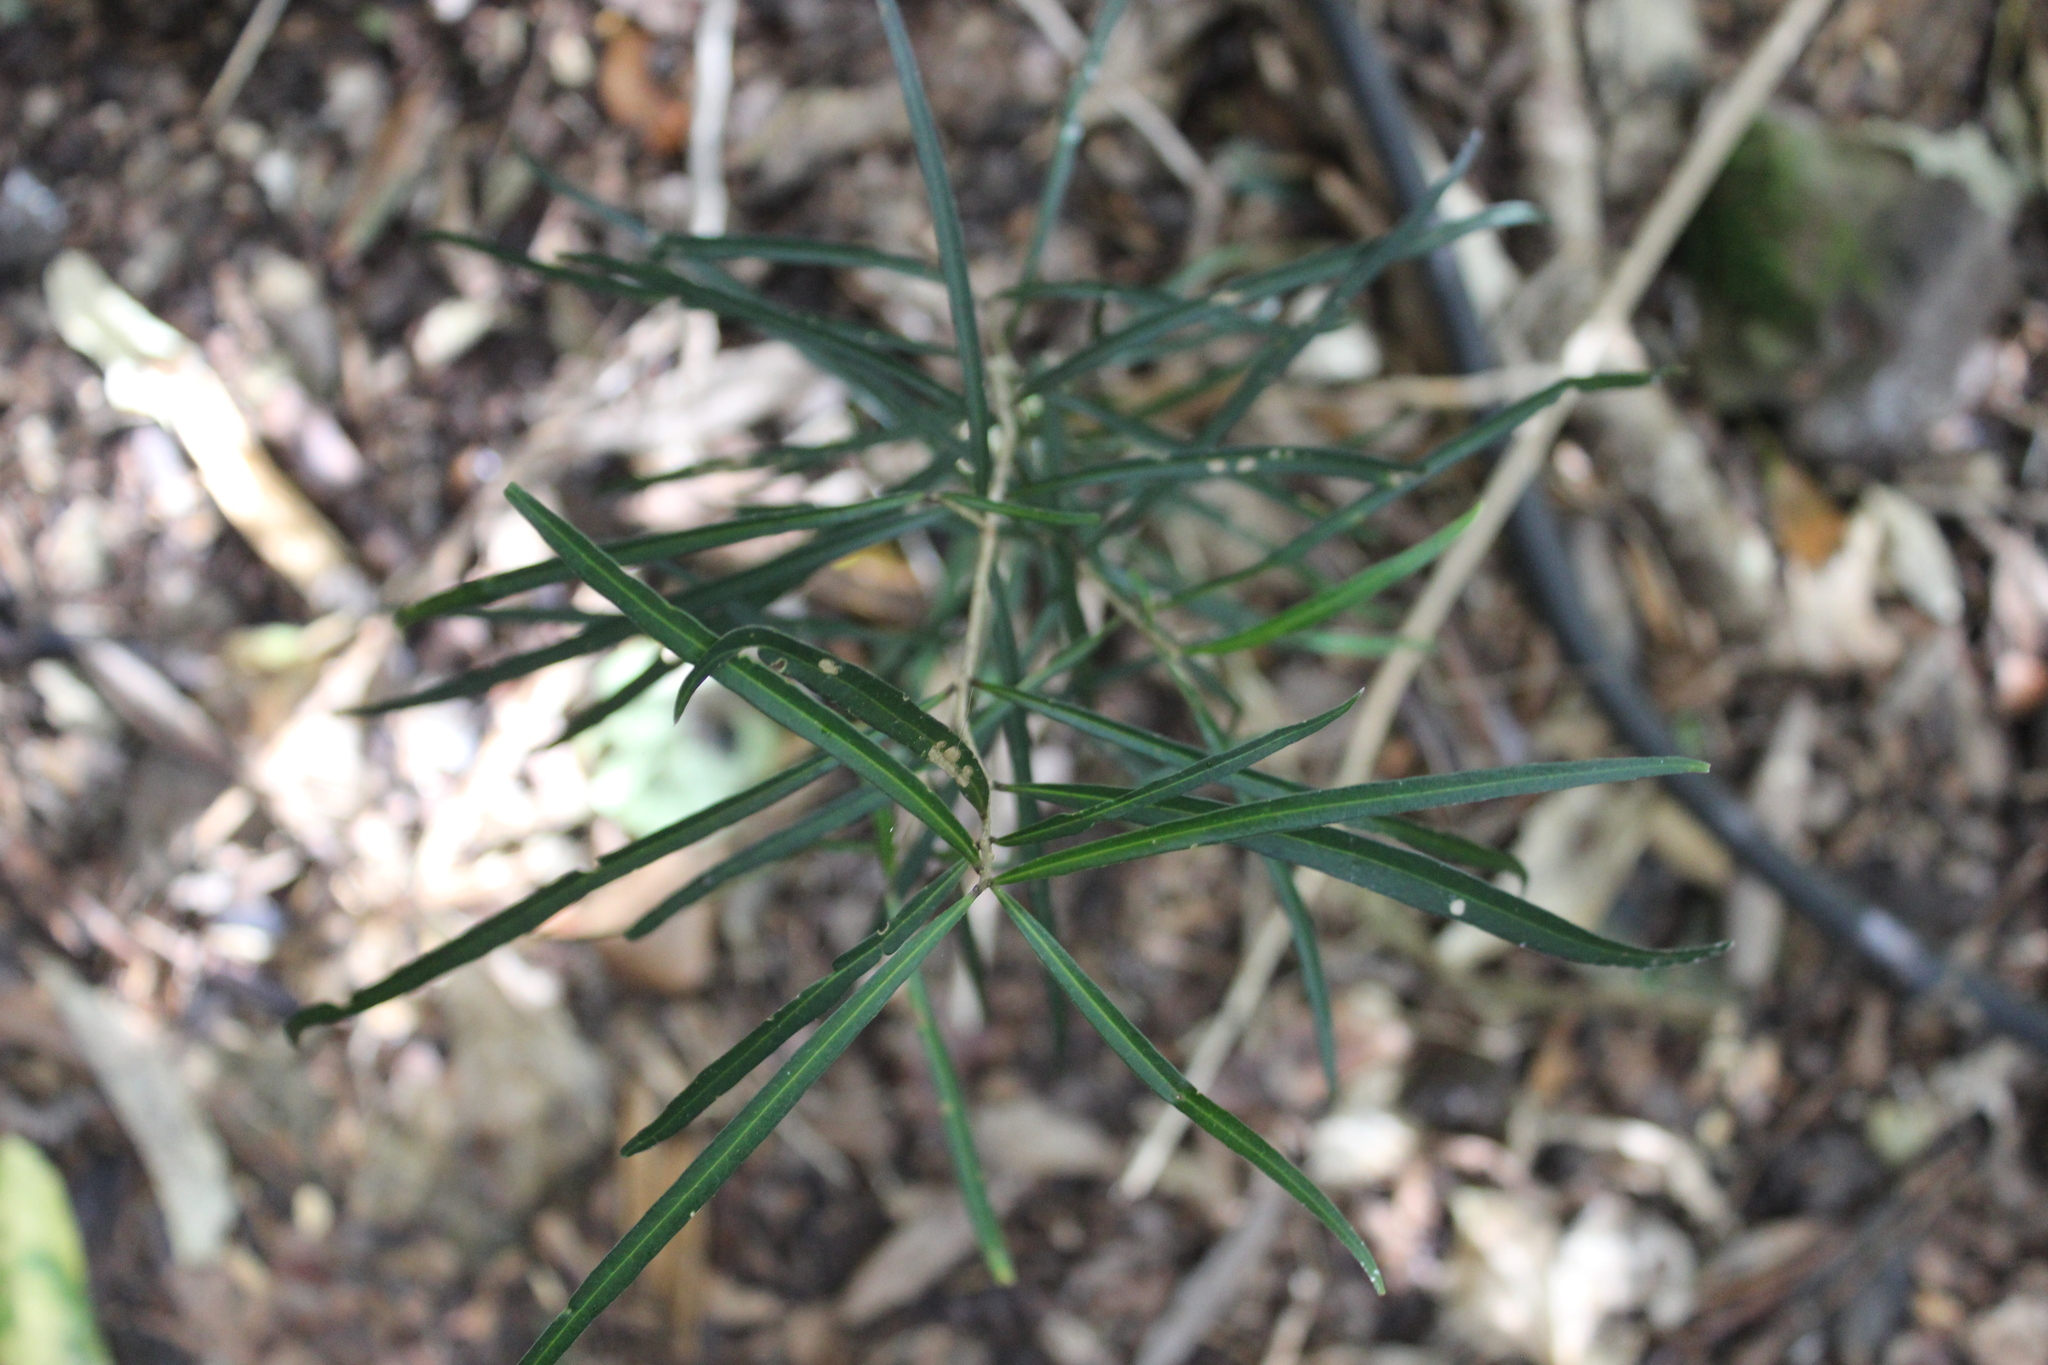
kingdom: Plantae
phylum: Tracheophyta
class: Magnoliopsida
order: Lamiales
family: Oleaceae
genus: Nestegis
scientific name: Nestegis lanceolata
